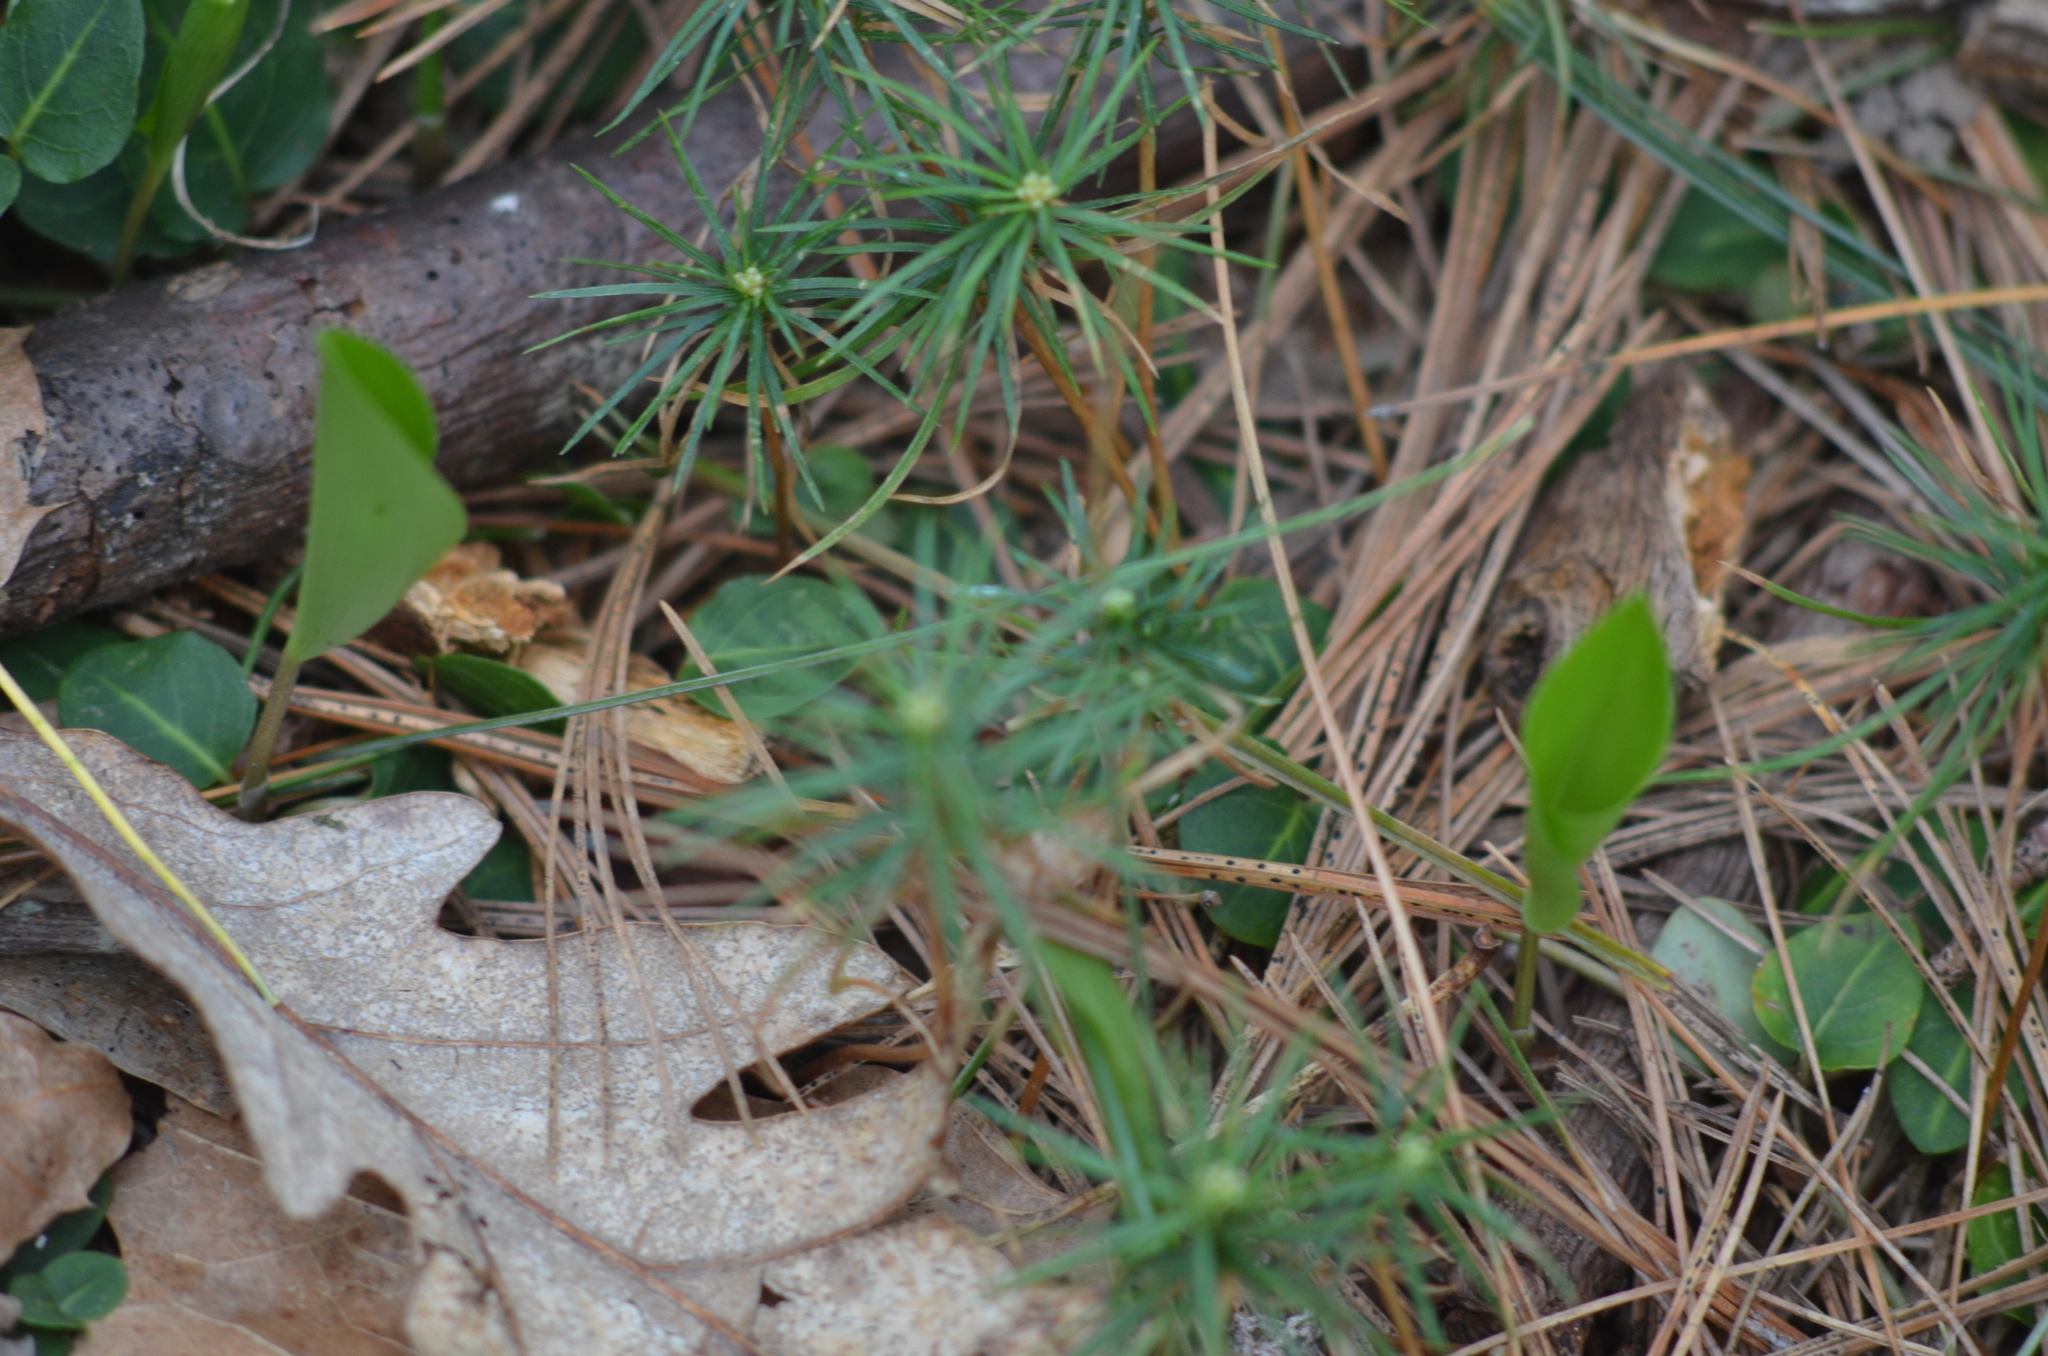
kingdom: Plantae
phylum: Tracheophyta
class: Pinopsida
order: Pinales
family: Pinaceae
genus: Pinus
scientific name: Pinus strobus
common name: Weymouth pine
